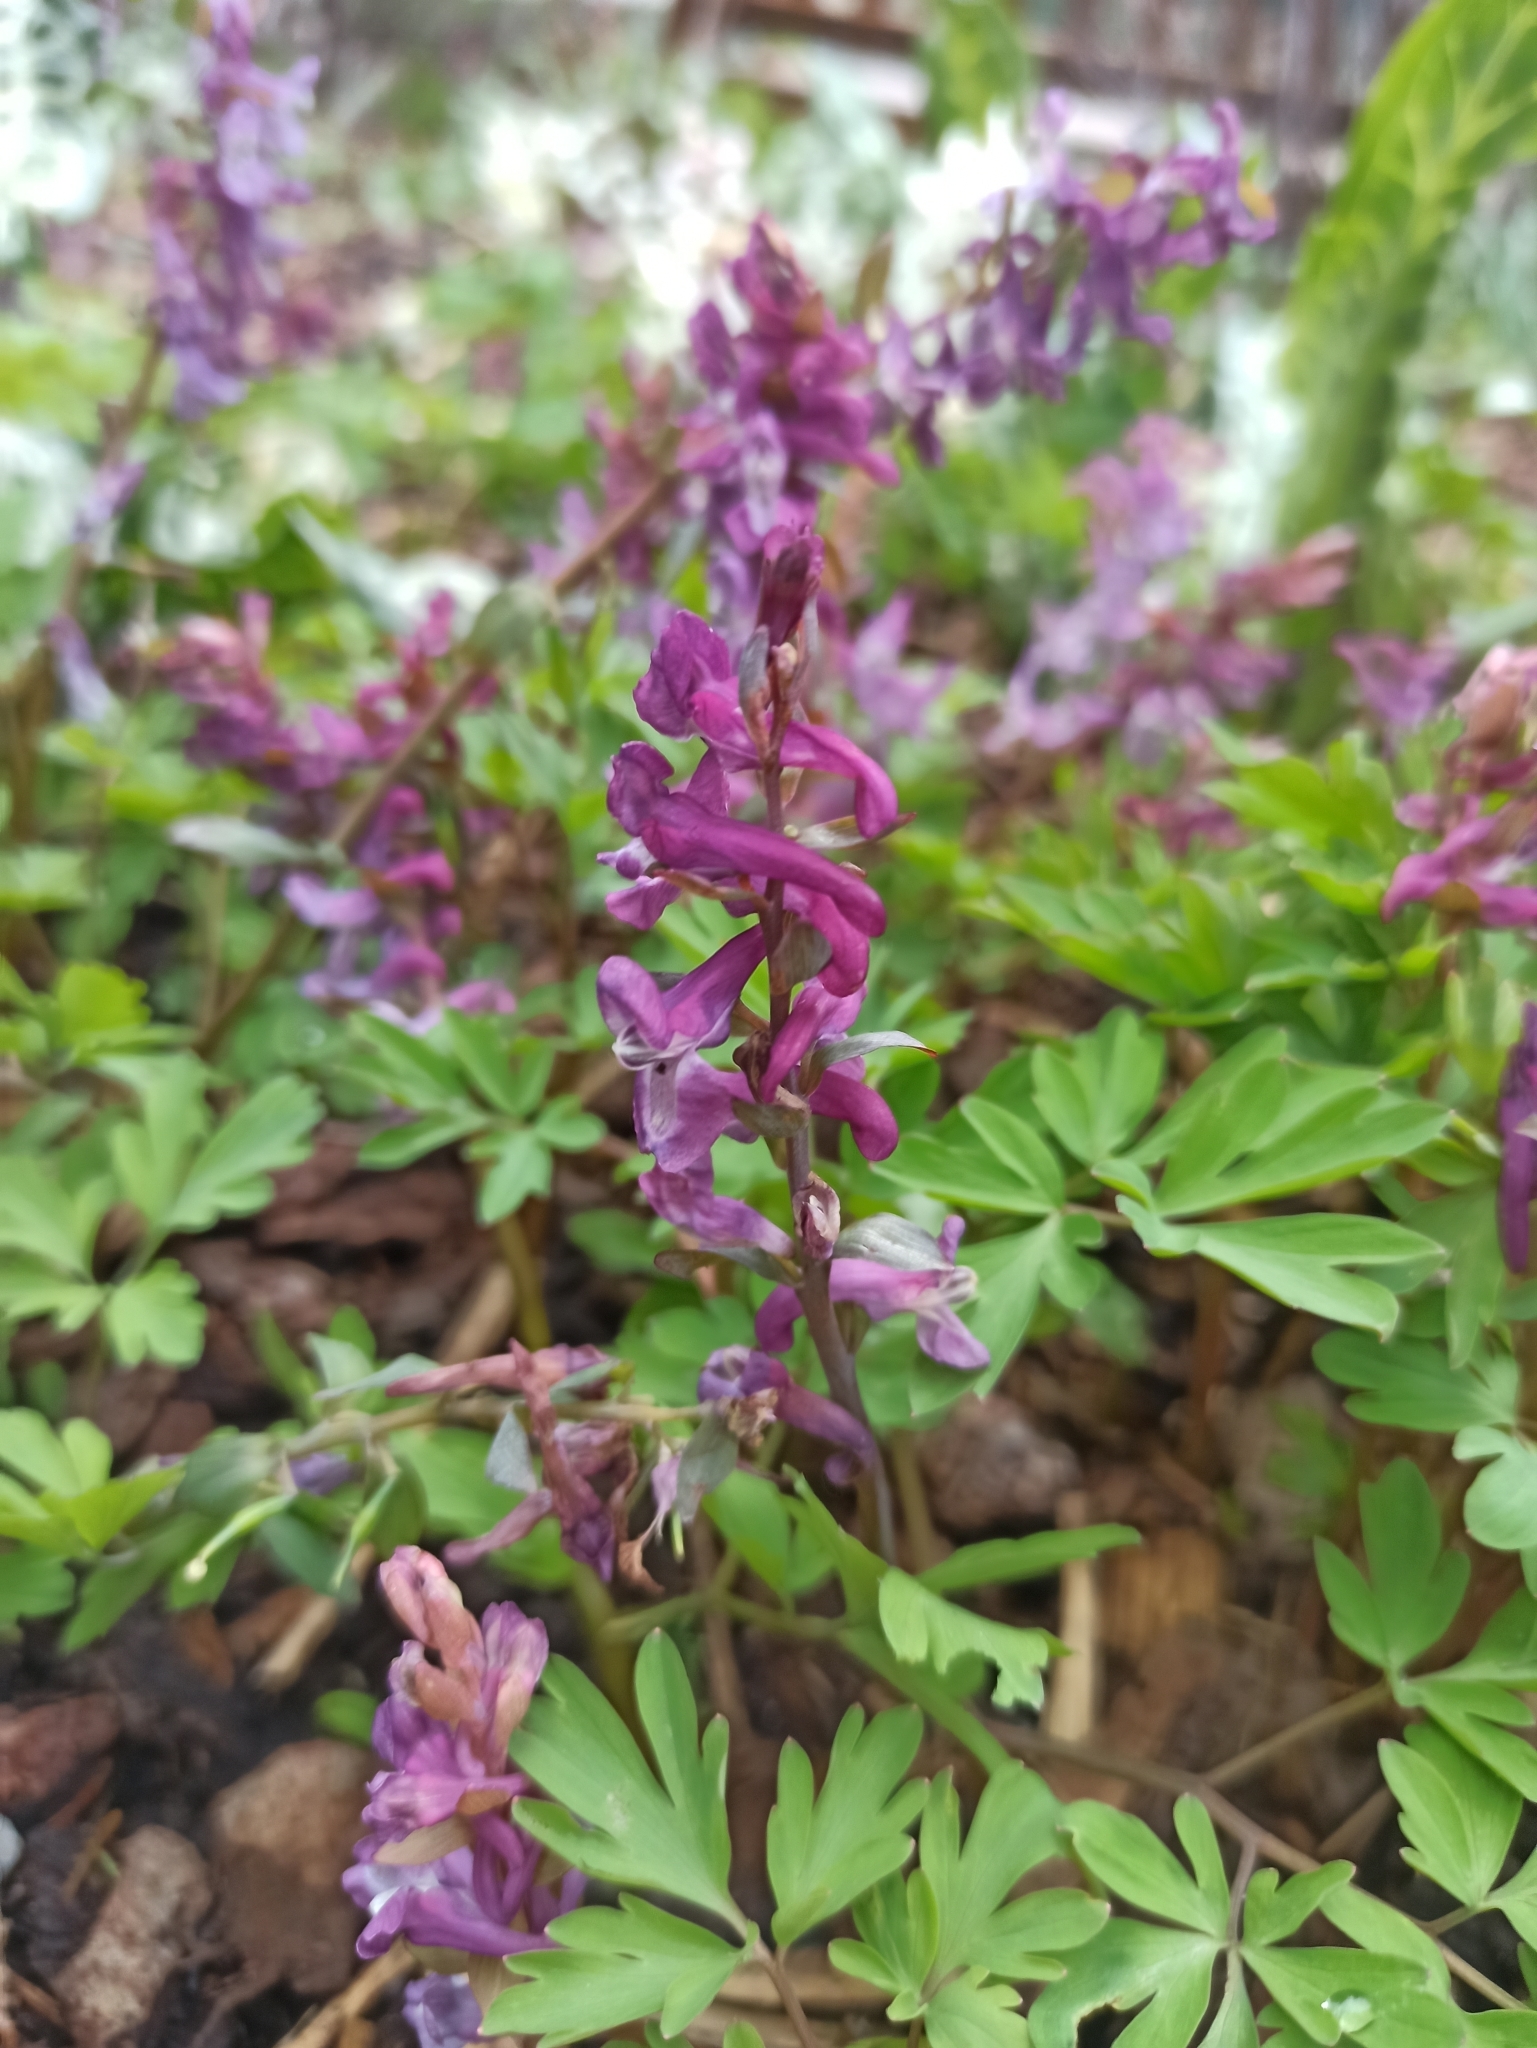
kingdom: Plantae
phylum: Tracheophyta
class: Magnoliopsida
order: Ranunculales
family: Papaveraceae
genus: Corydalis
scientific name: Corydalis cava
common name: Hollowroot
